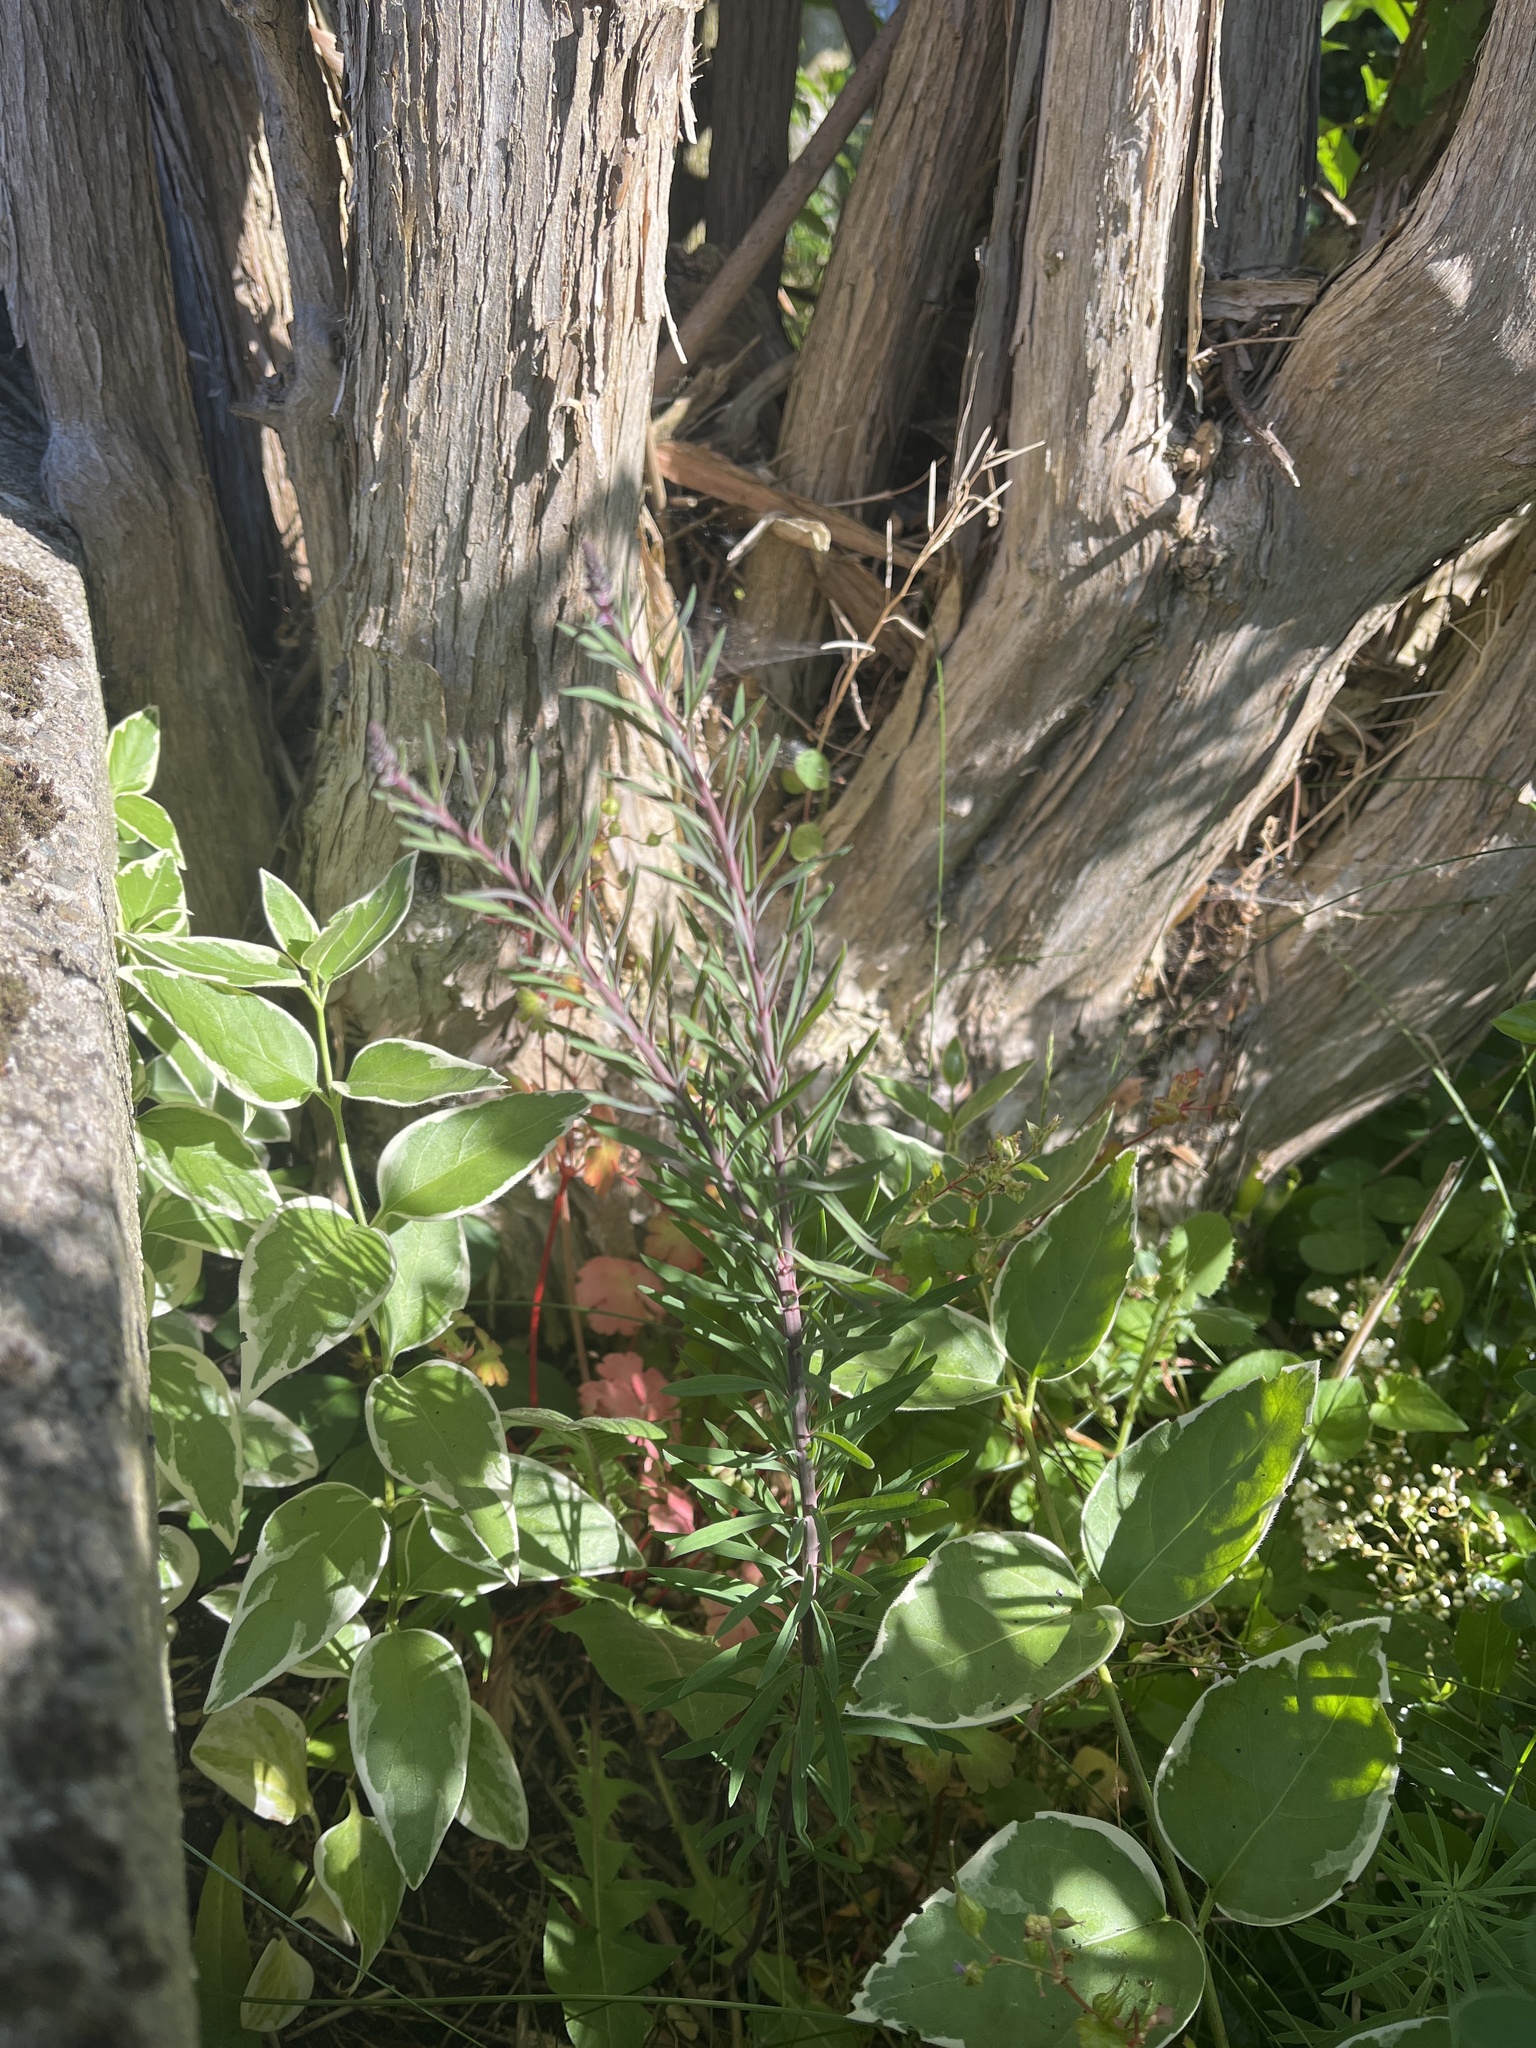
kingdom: Plantae
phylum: Tracheophyta
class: Magnoliopsida
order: Lamiales
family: Plantaginaceae
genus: Linaria
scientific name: Linaria purpurea
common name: Purple toadflax
